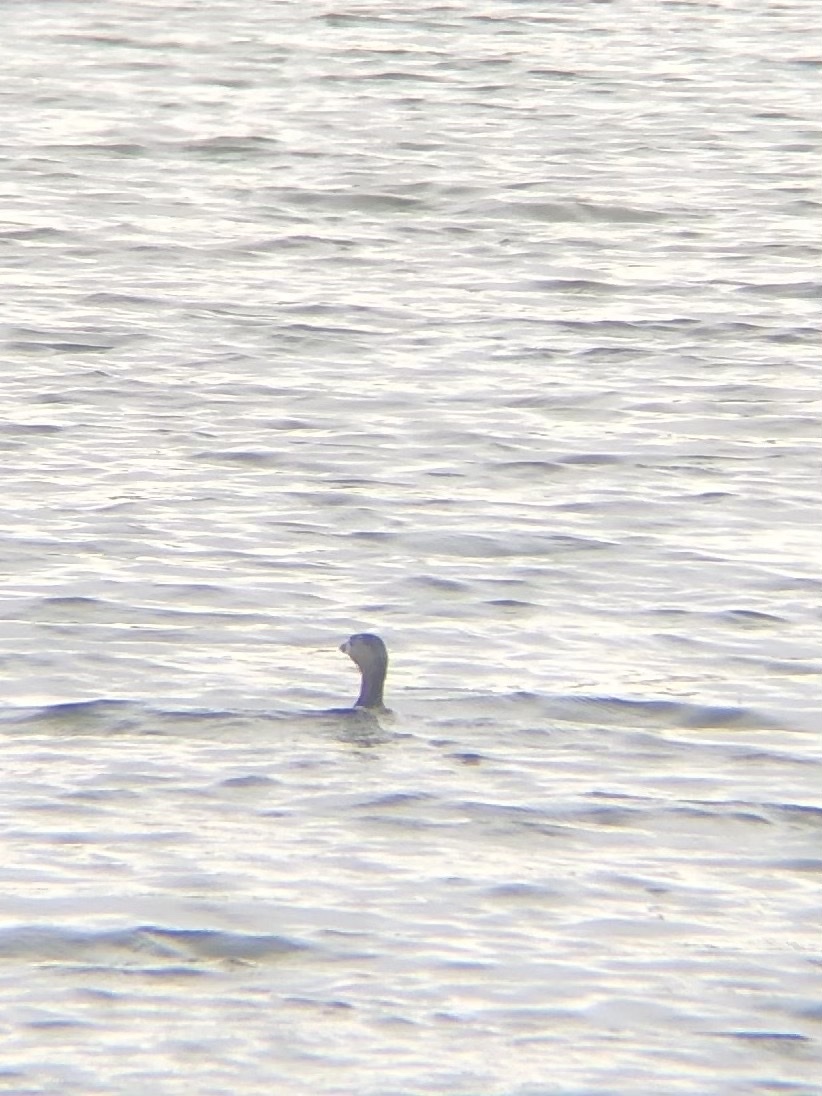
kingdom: Animalia
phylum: Chordata
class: Aves
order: Podicipediformes
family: Podicipedidae
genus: Podilymbus
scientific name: Podilymbus podiceps
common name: Pied-billed grebe
